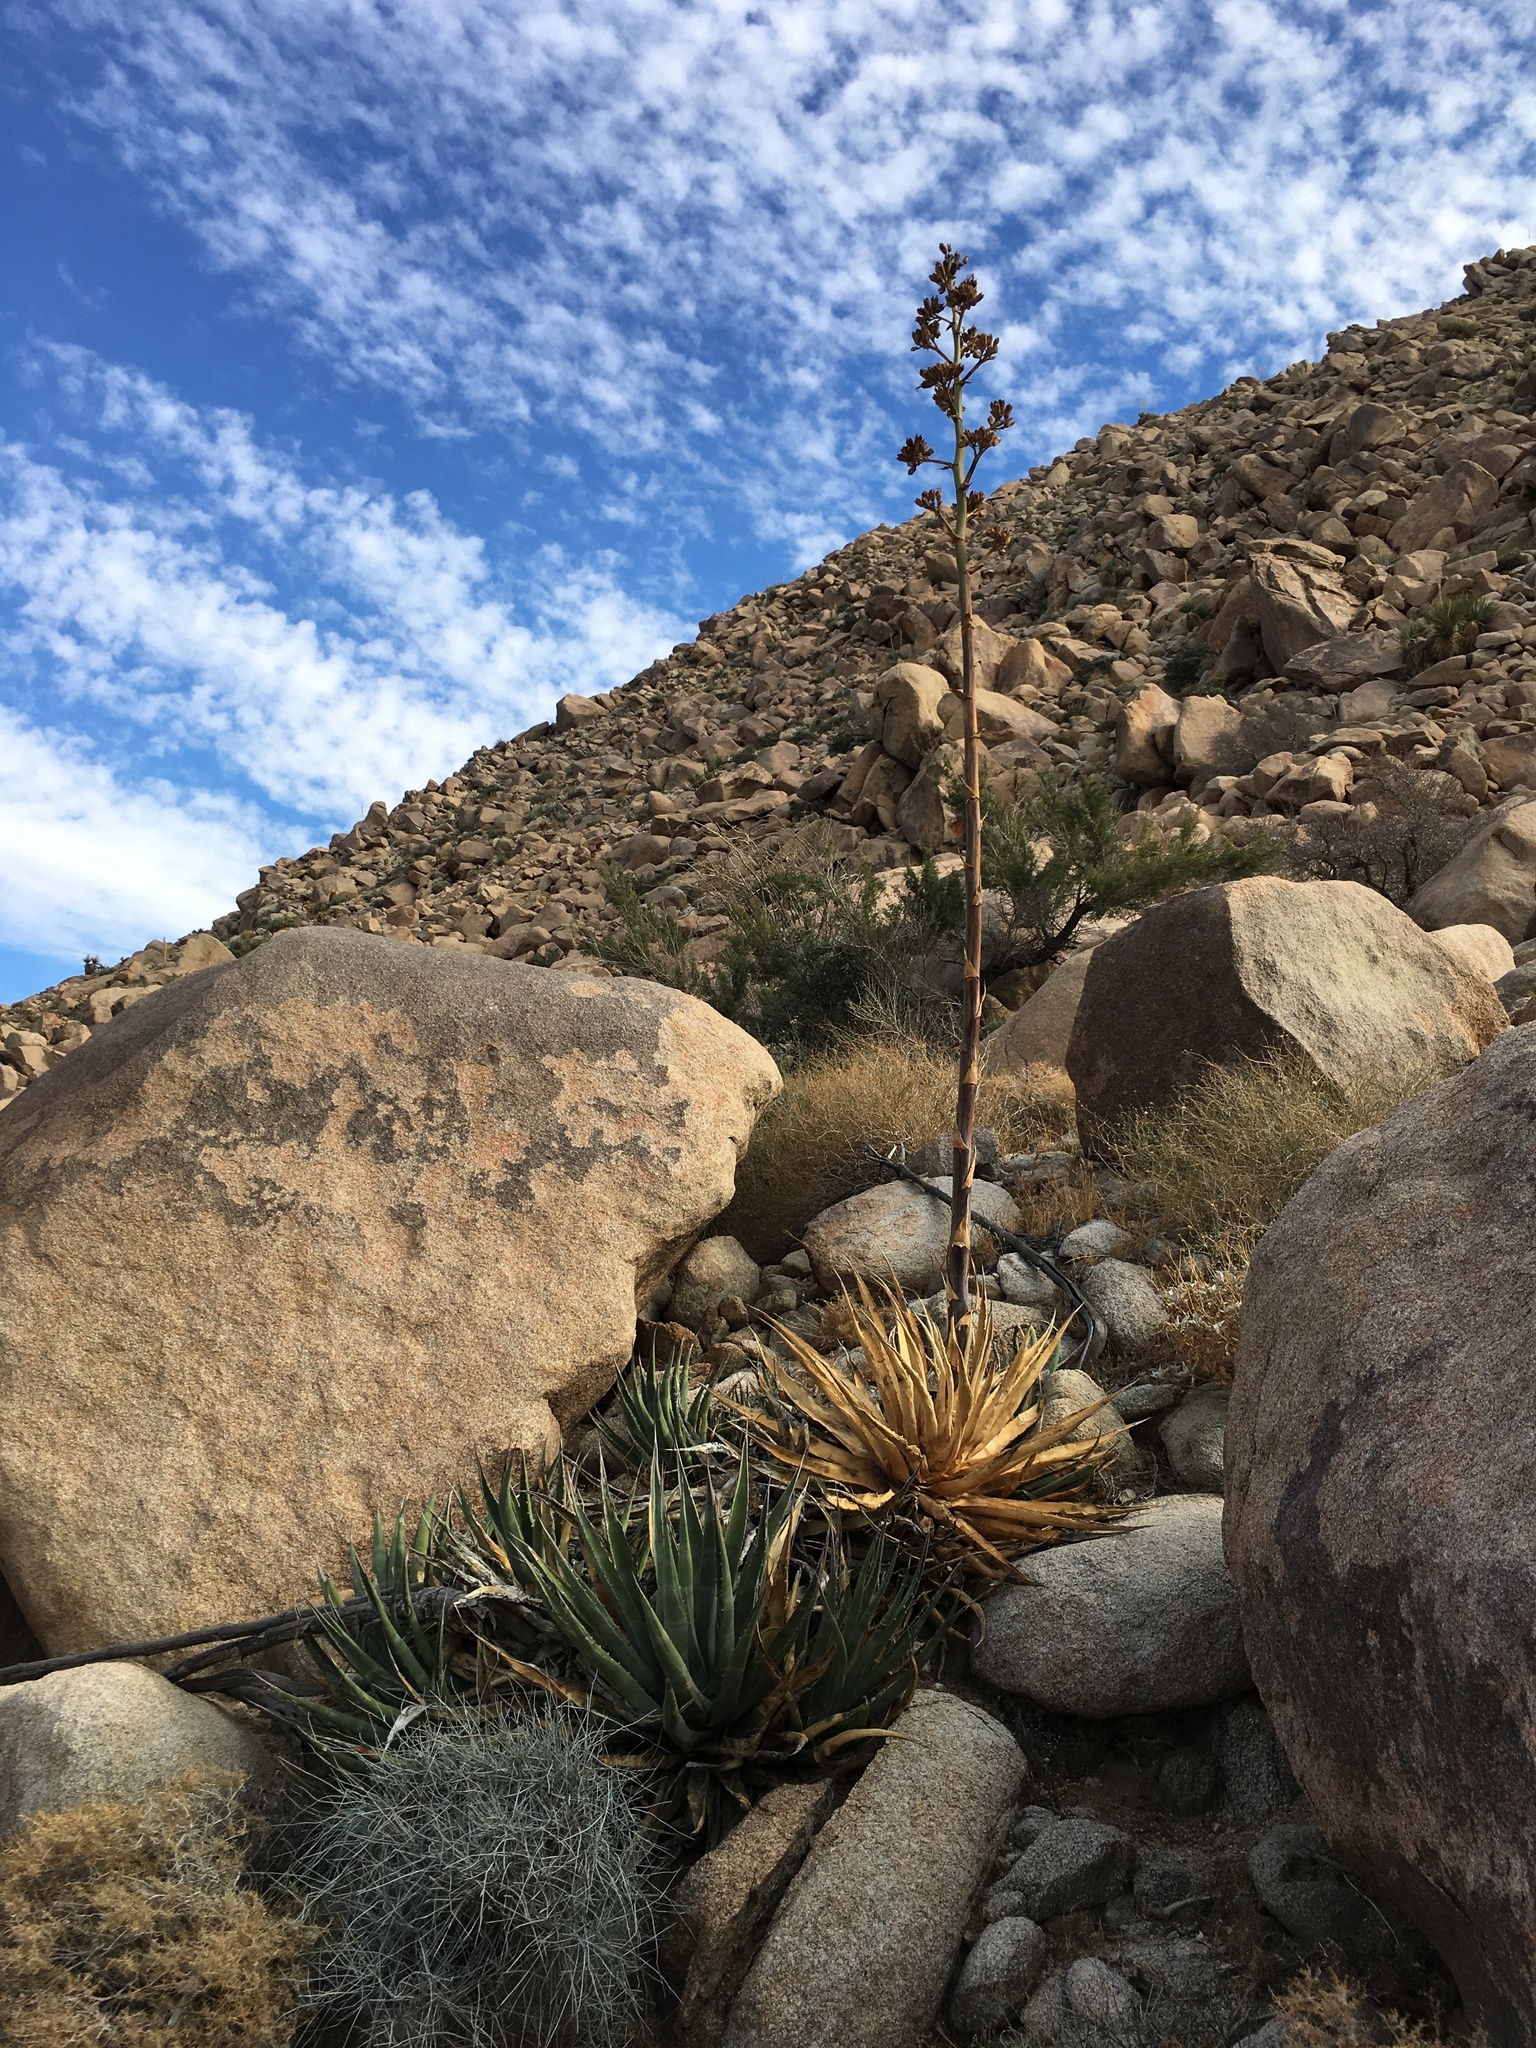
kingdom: Plantae
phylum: Tracheophyta
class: Liliopsida
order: Asparagales
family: Asparagaceae
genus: Agave
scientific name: Agave deserti
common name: Desert agave
